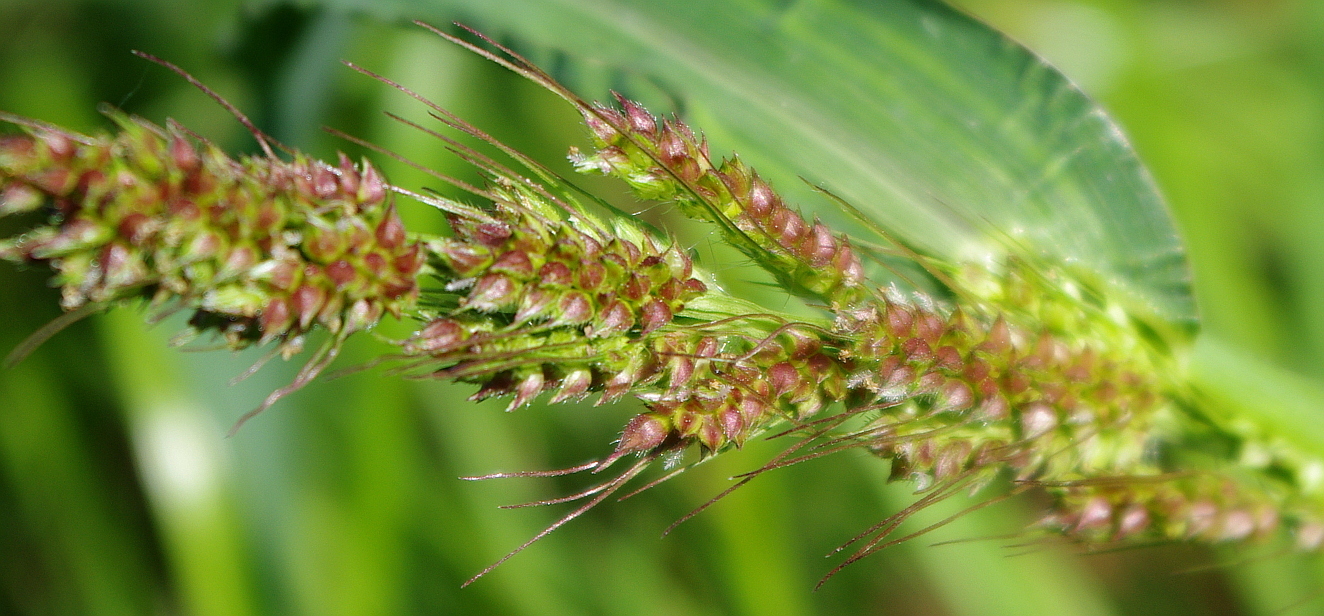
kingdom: Plantae
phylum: Tracheophyta
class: Liliopsida
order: Poales
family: Poaceae
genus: Echinochloa
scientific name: Echinochloa crus-galli
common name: Cockspur
